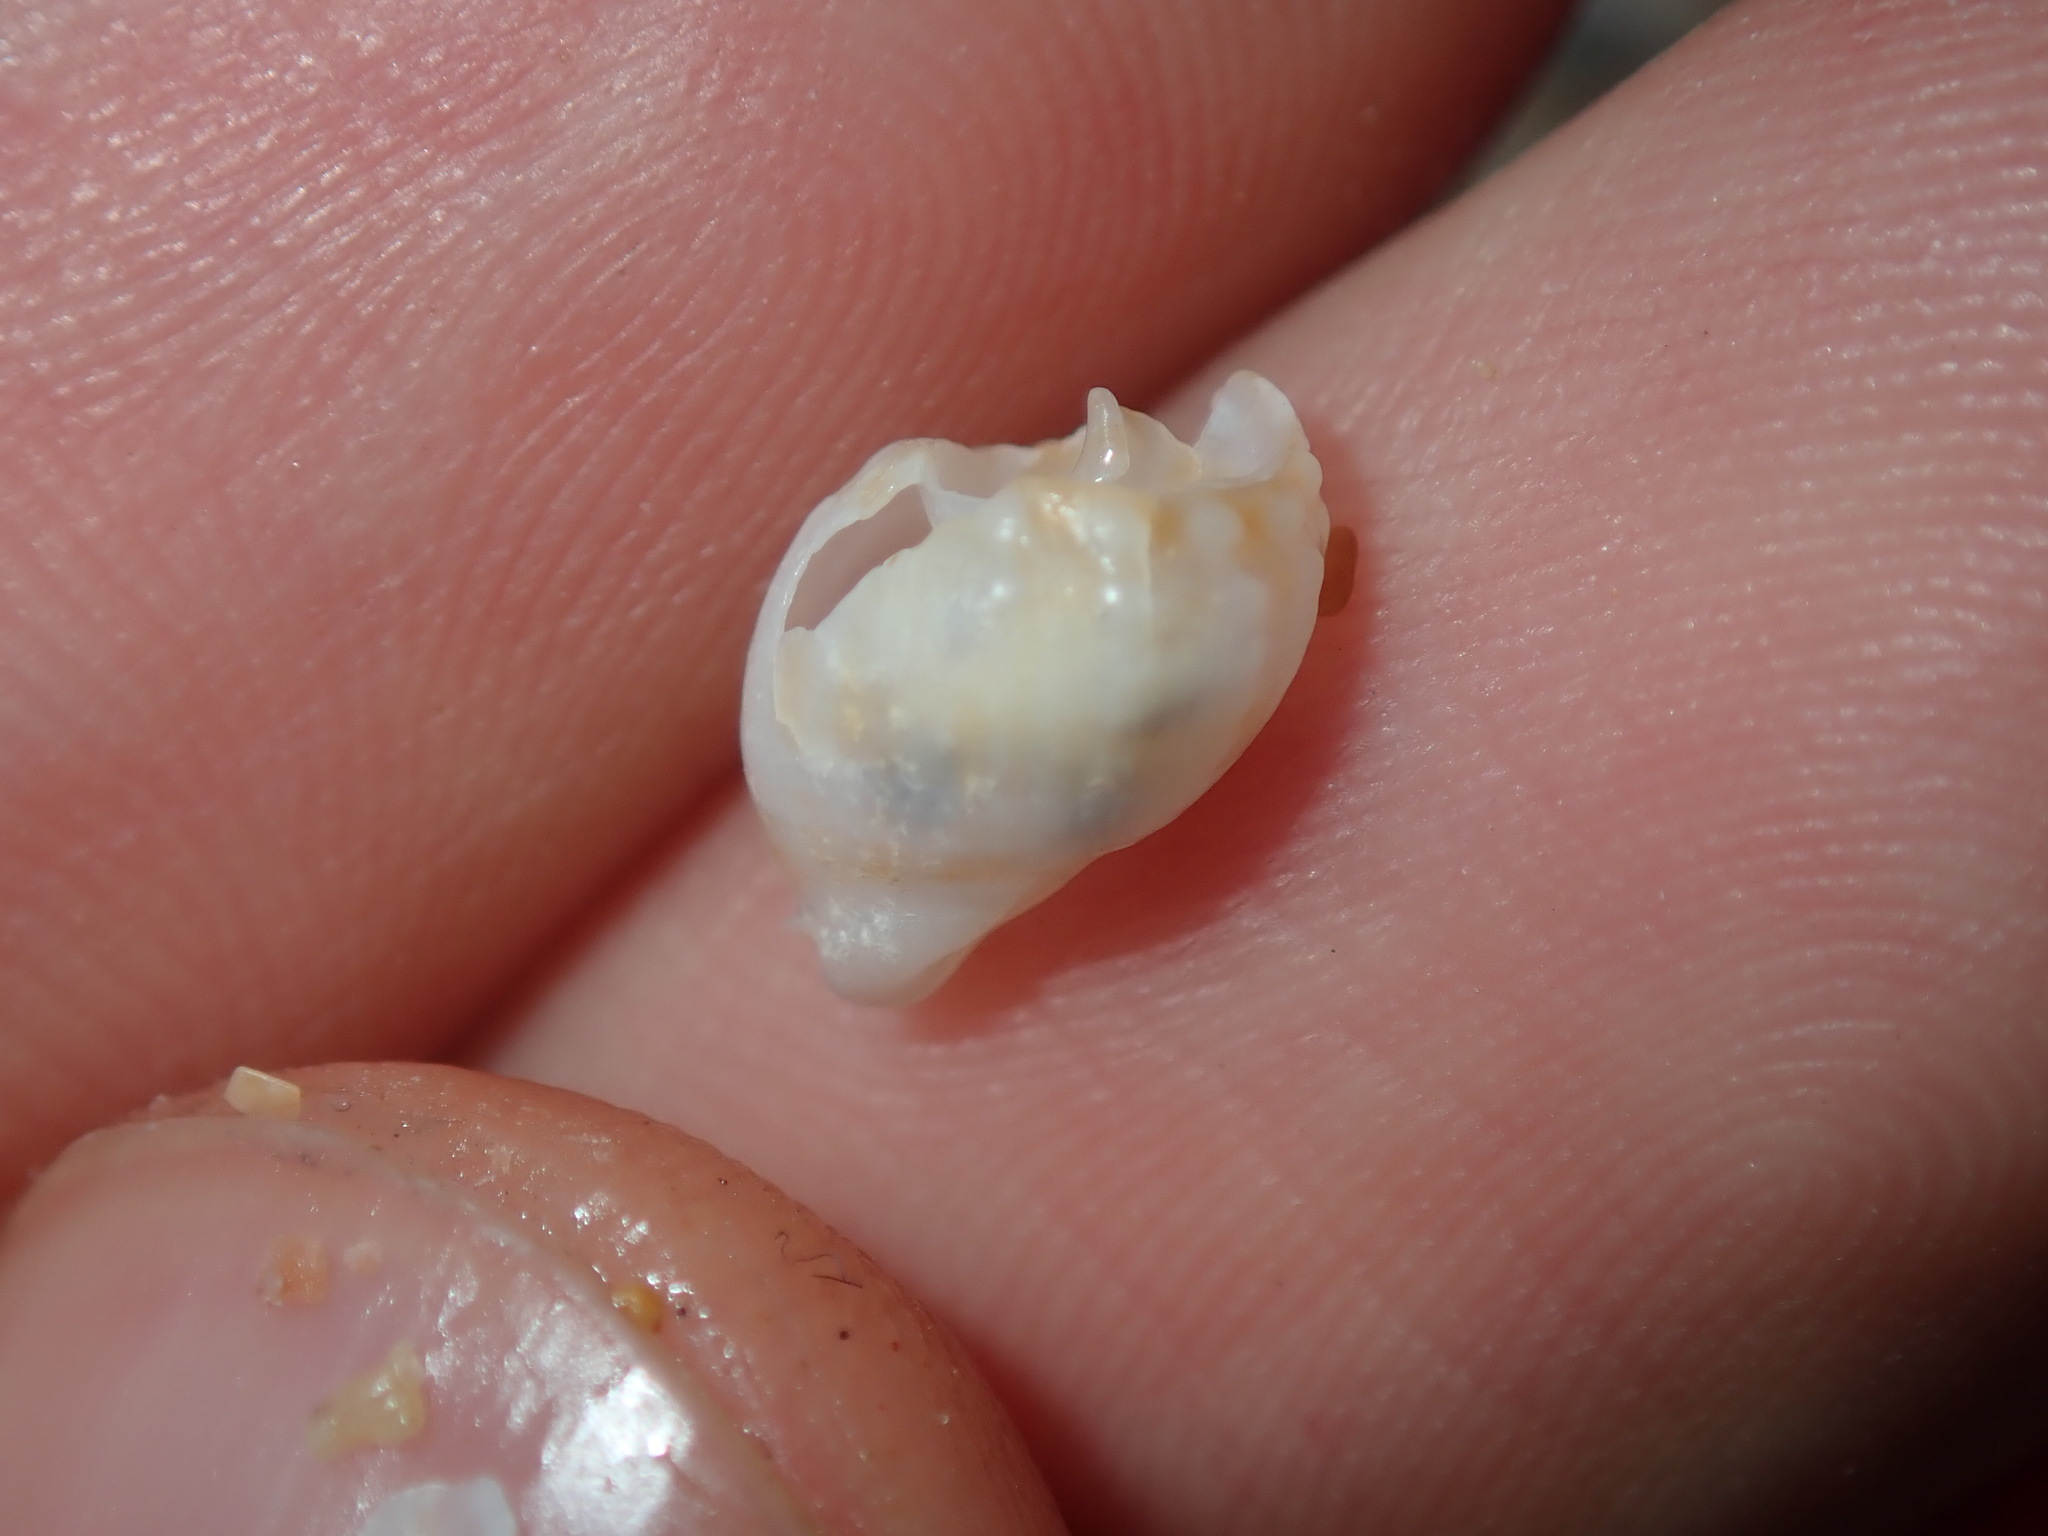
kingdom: Animalia
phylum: Mollusca
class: Gastropoda
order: Neogastropoda
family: Nassariidae
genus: Nassarius
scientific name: Nassarius nigellus
